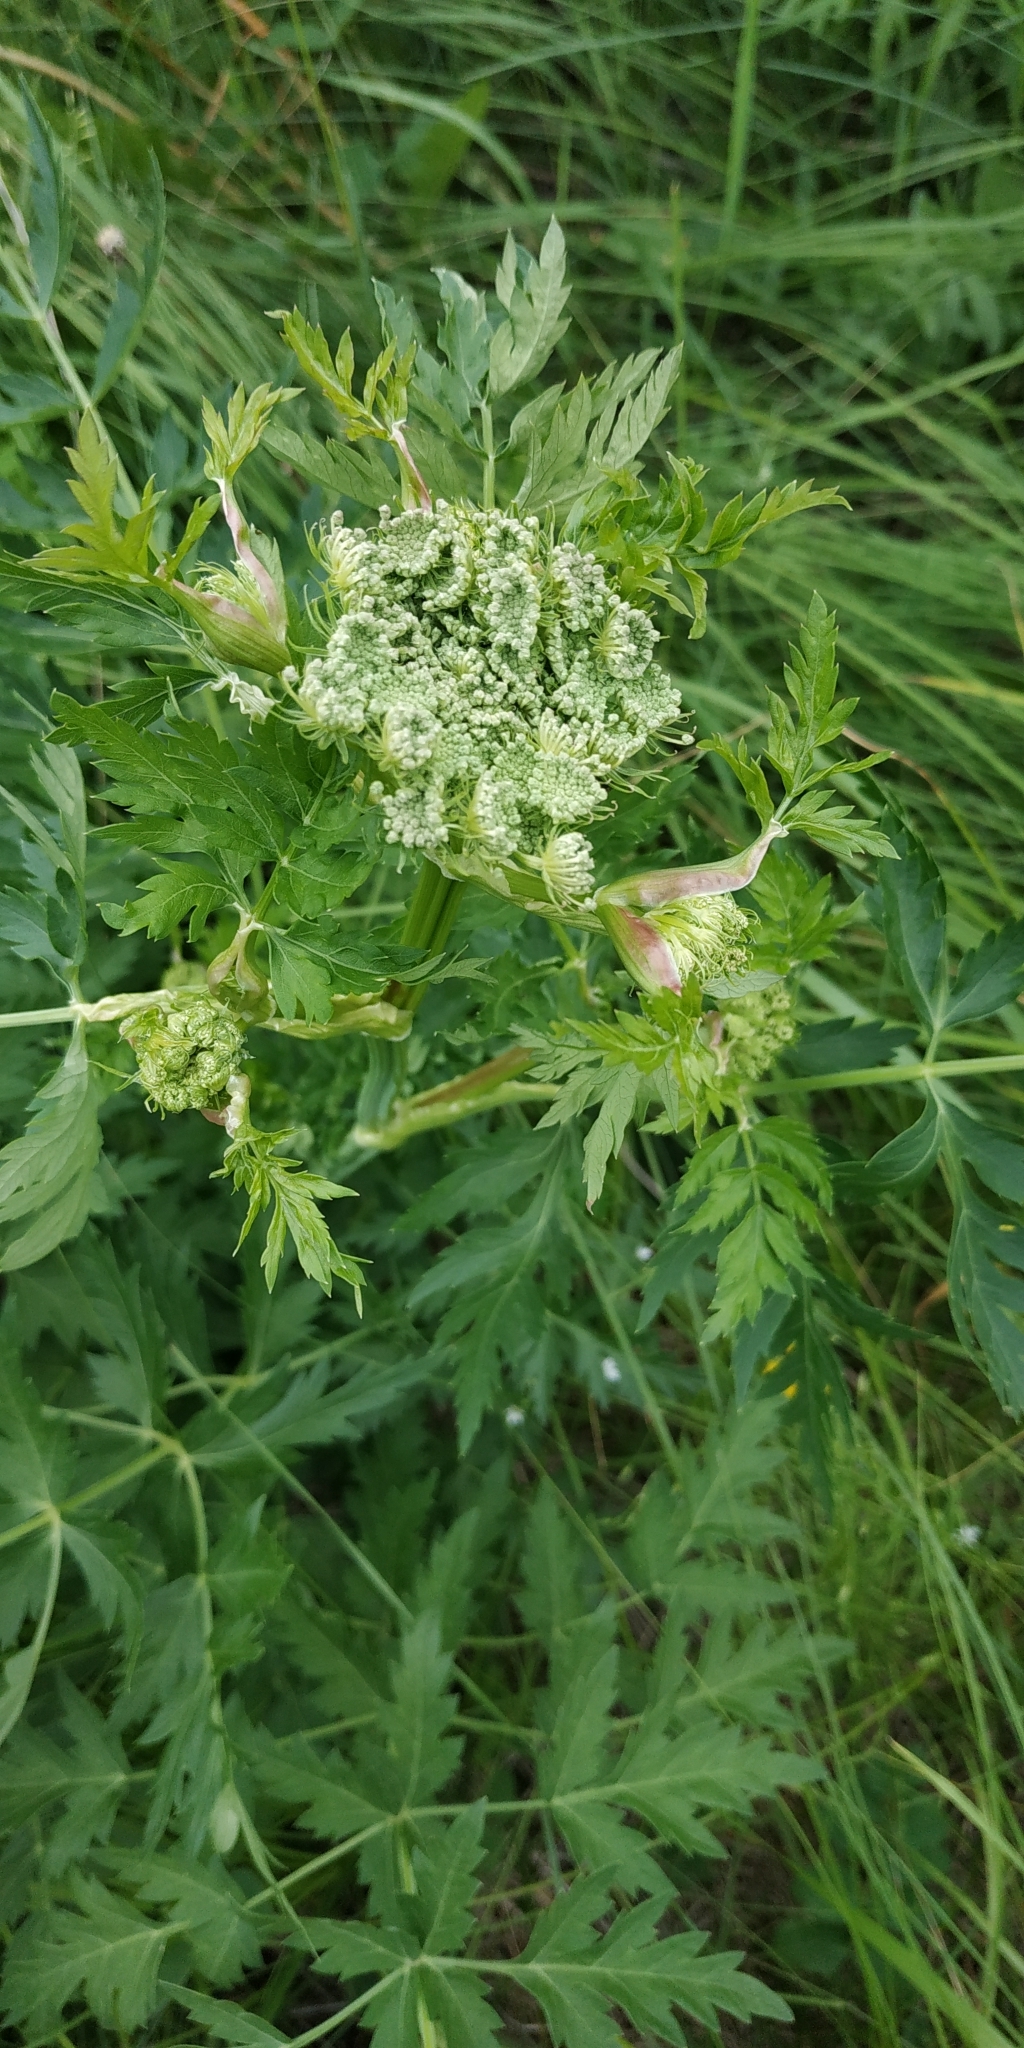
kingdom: Plantae
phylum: Tracheophyta
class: Magnoliopsida
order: Apiales
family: Apiaceae
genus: Seseli
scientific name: Seseli libanotis
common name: Mooncarrot
